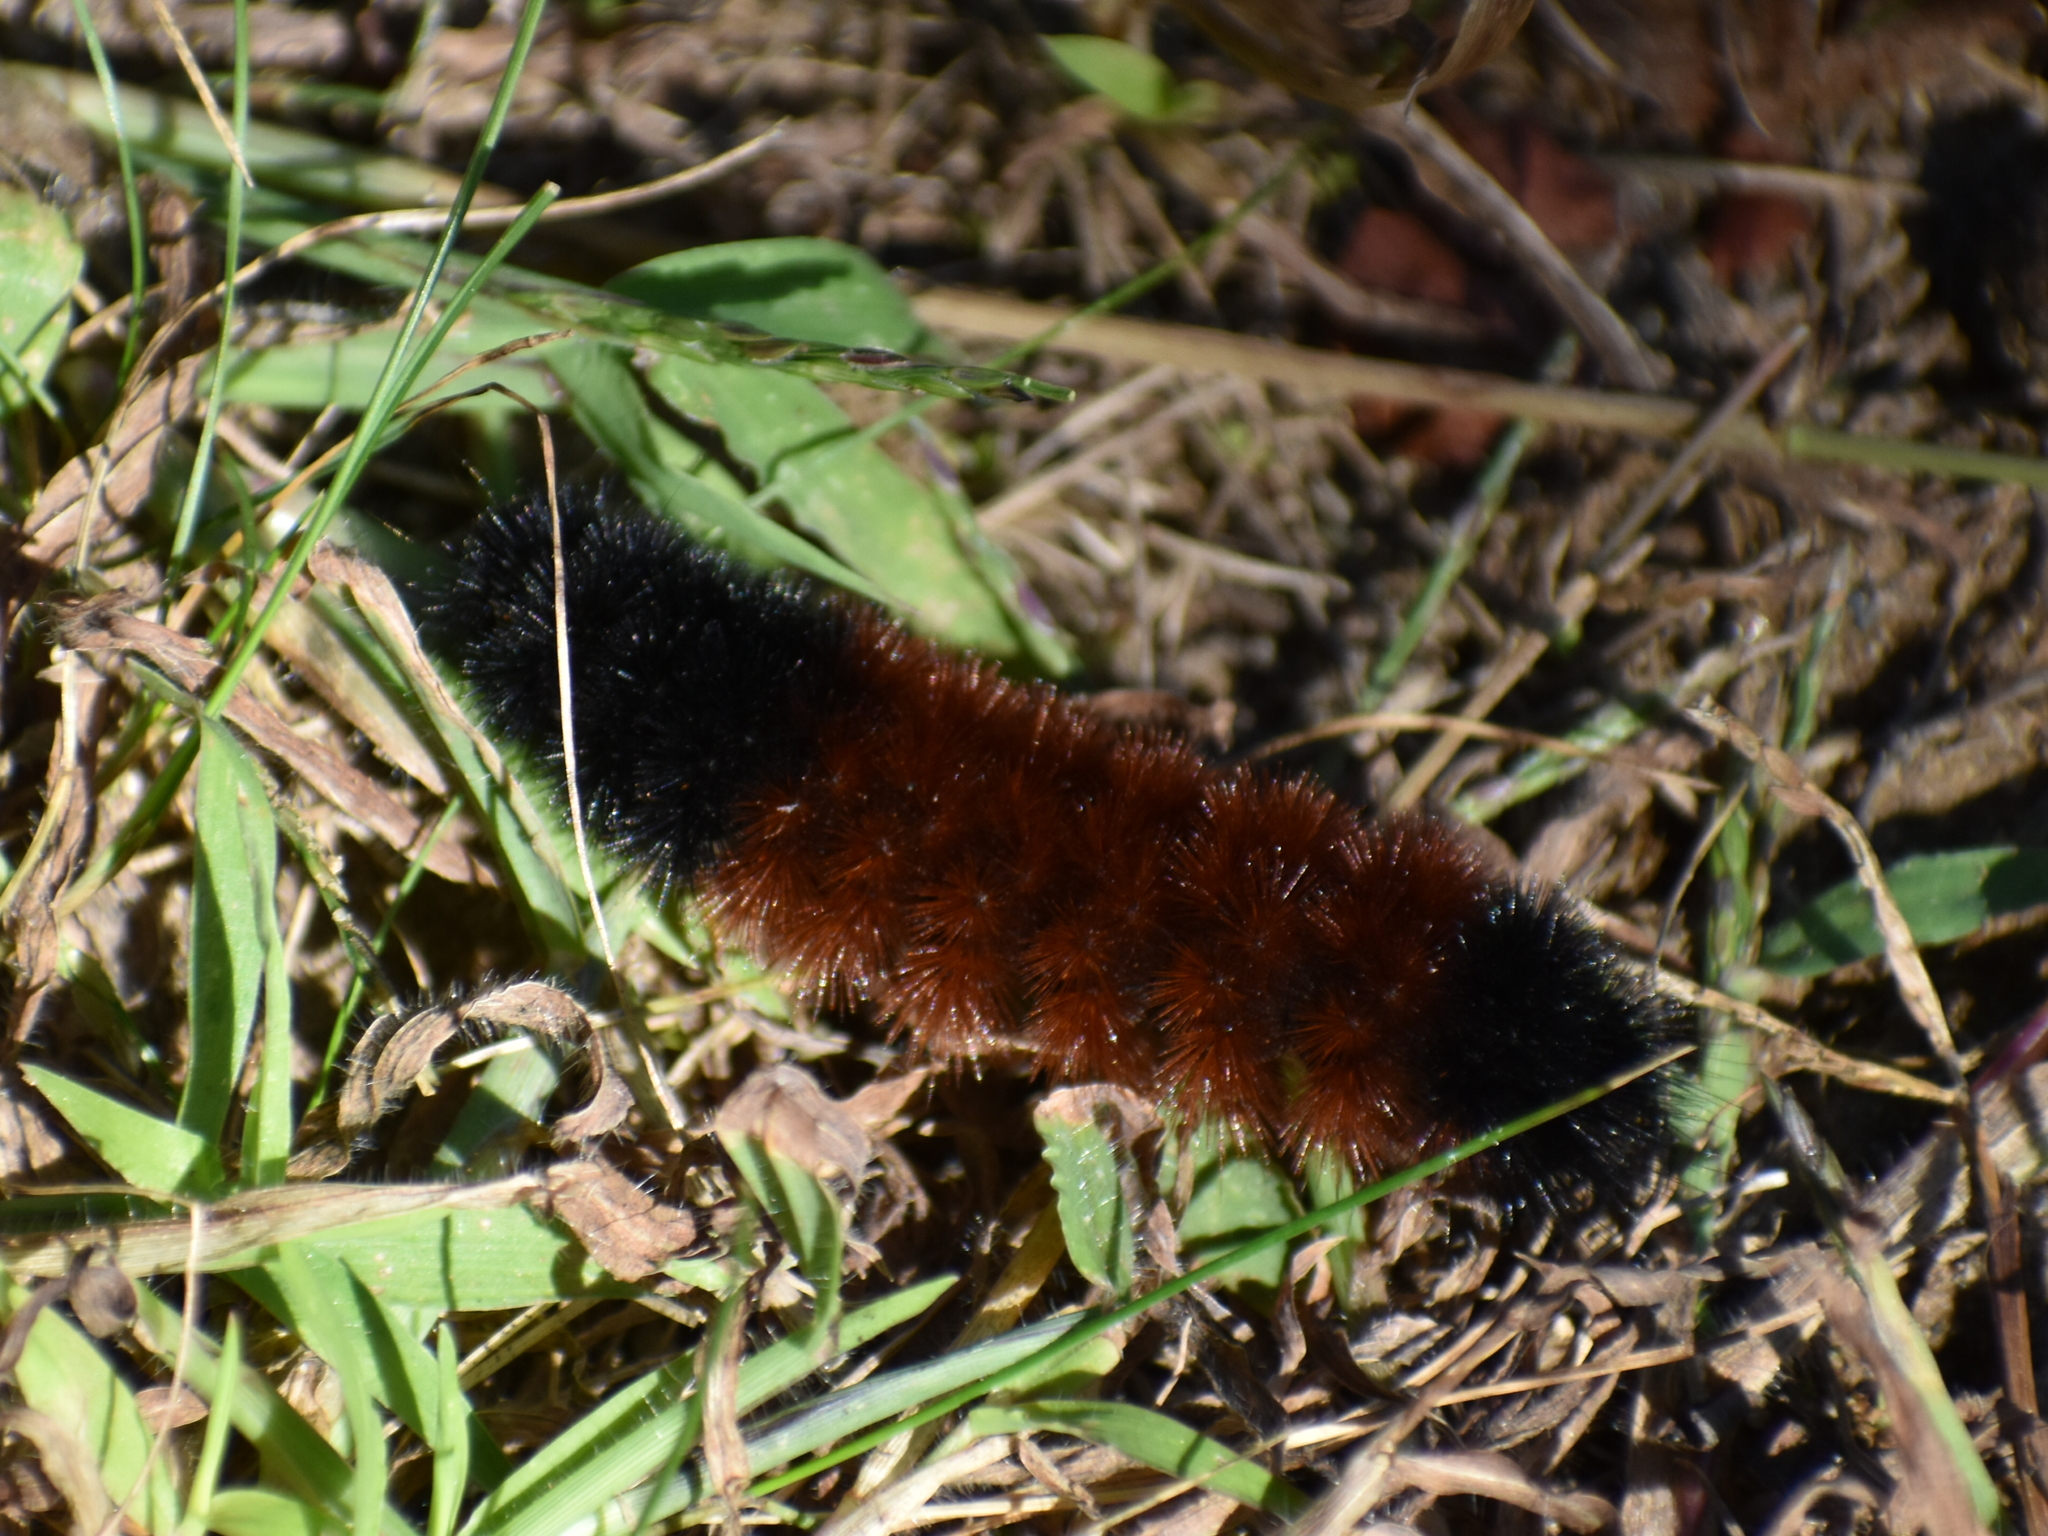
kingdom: Animalia
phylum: Arthropoda
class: Insecta
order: Lepidoptera
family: Erebidae
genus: Pyrrharctia
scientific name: Pyrrharctia isabella
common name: Isabella tiger moth
